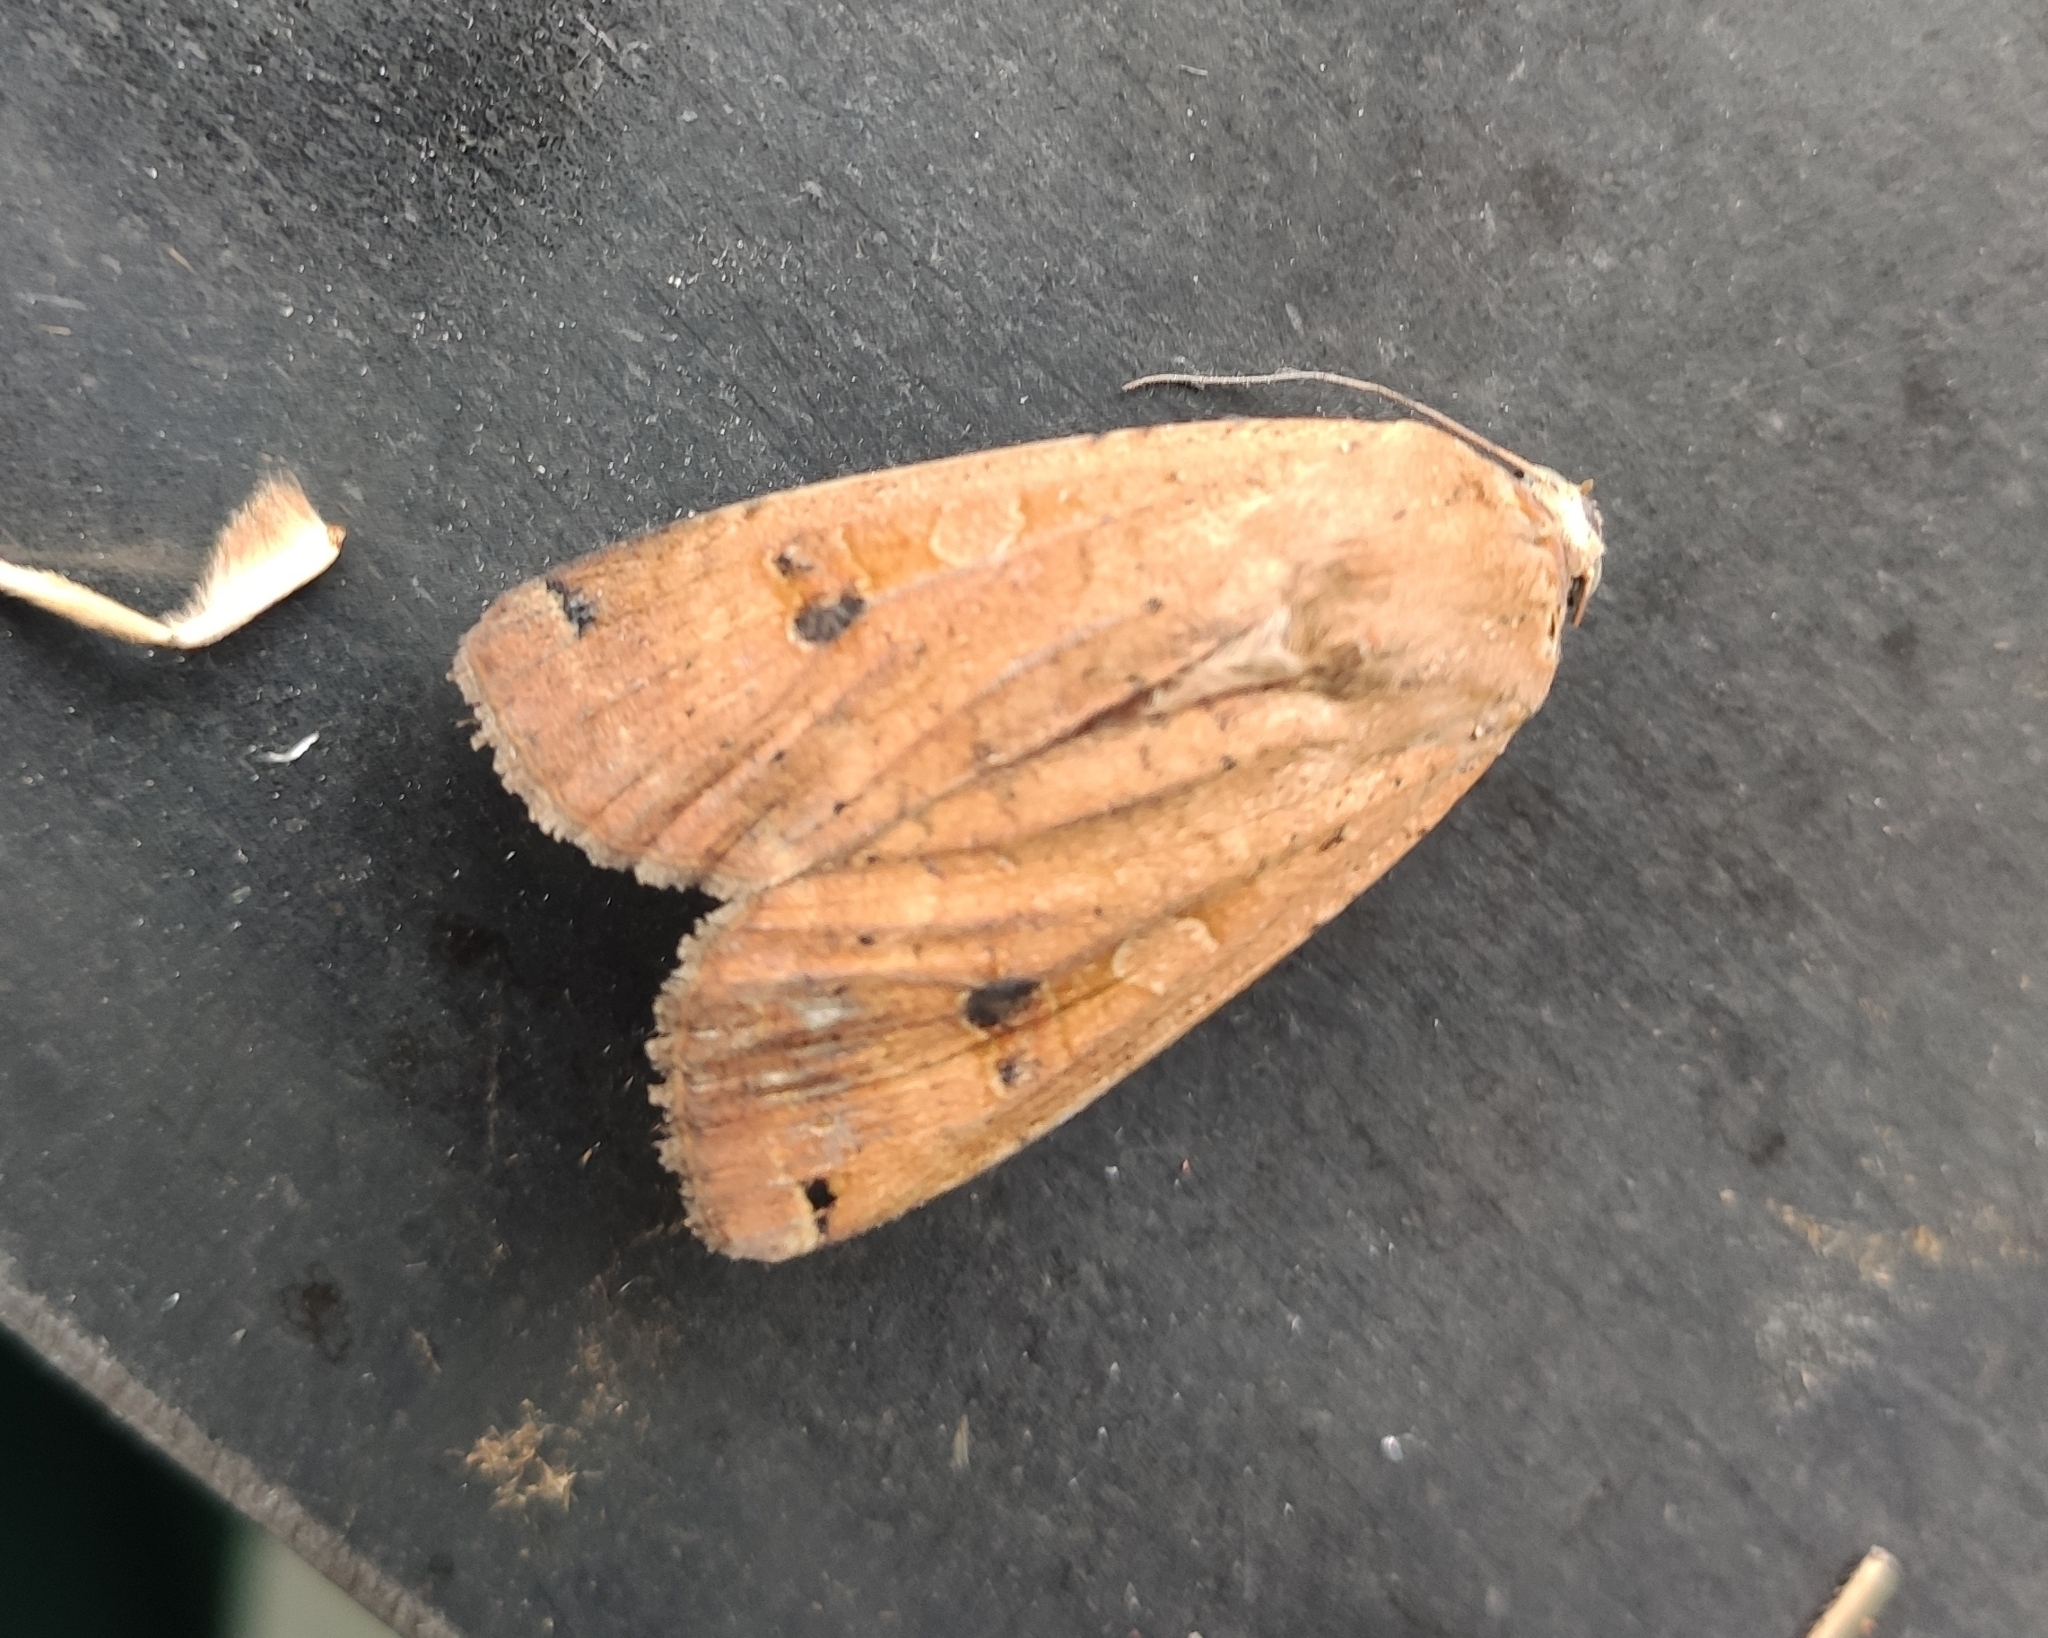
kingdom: Animalia
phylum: Arthropoda
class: Insecta
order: Lepidoptera
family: Noctuidae
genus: Noctua
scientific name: Noctua pronuba
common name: Large yellow underwing
